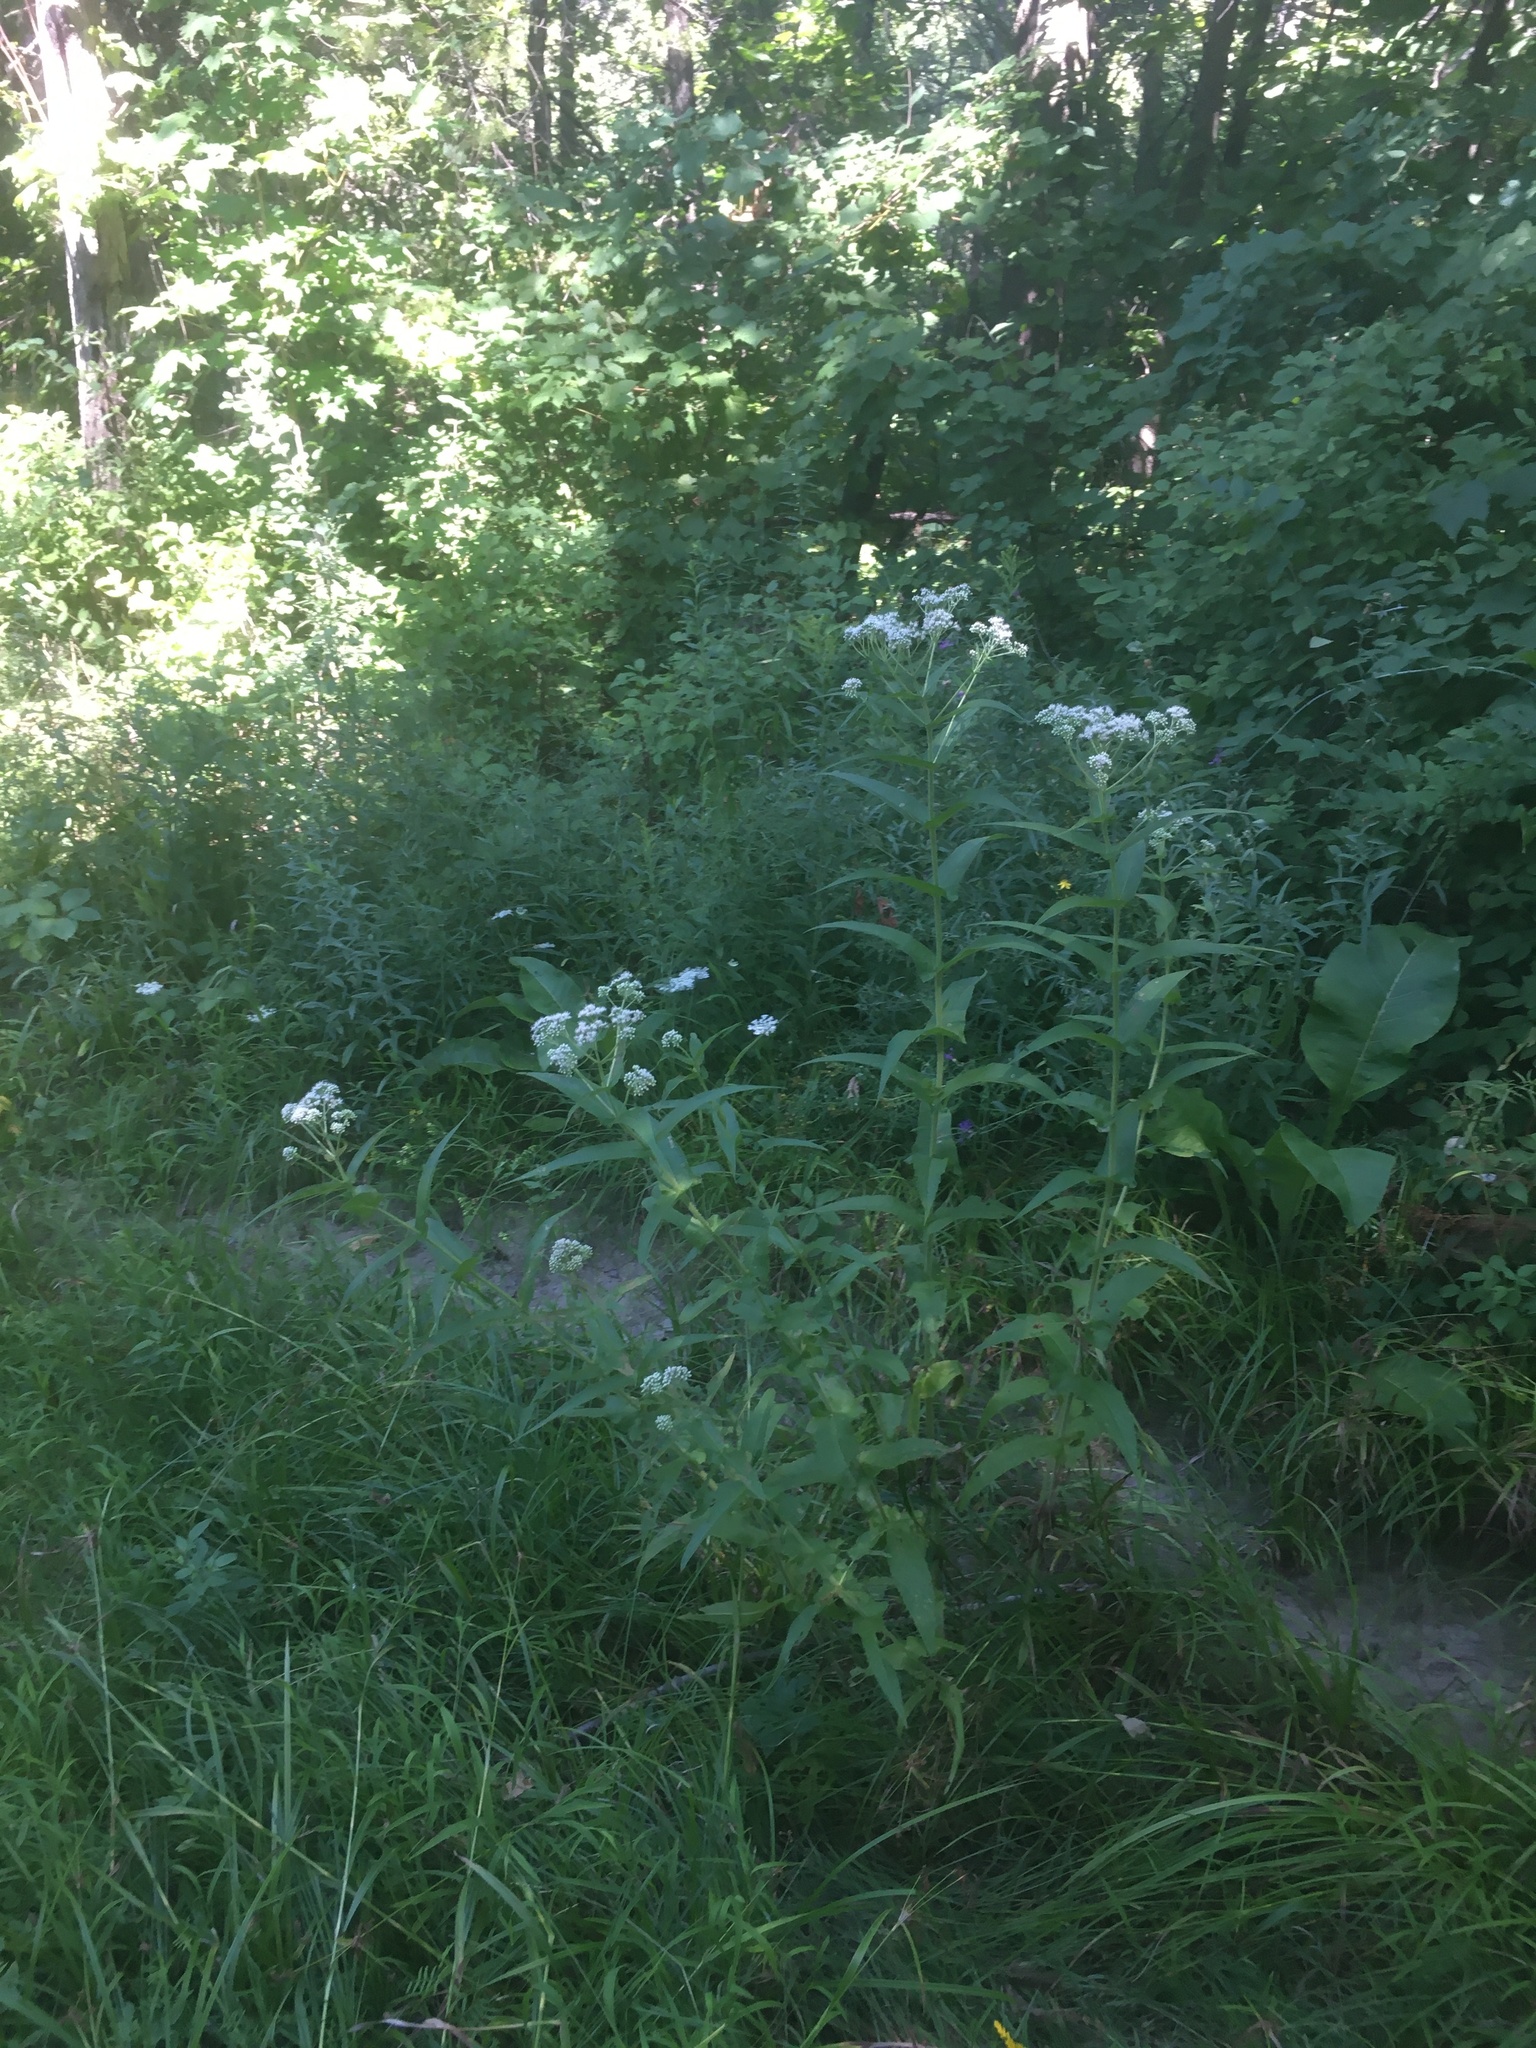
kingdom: Plantae
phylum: Tracheophyta
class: Magnoliopsida
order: Asterales
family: Asteraceae
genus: Eupatorium
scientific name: Eupatorium perfoliatum
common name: Boneset
